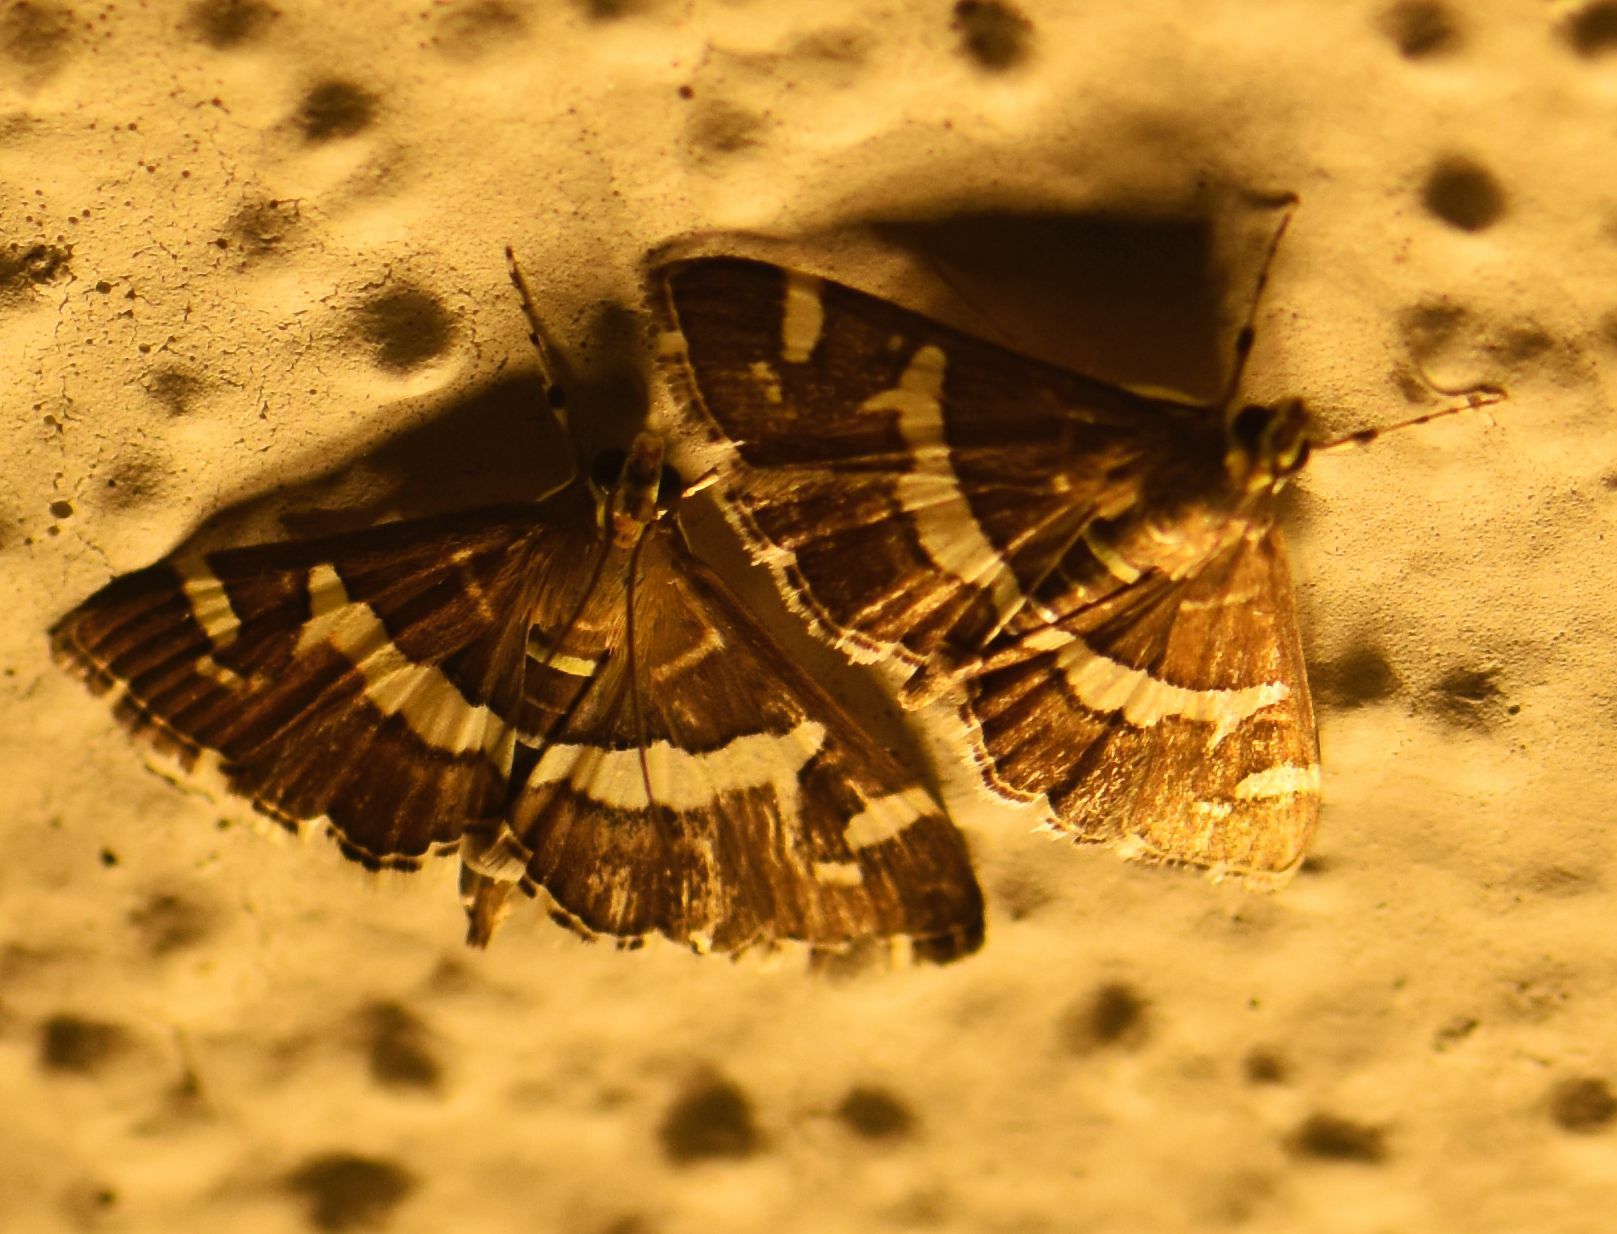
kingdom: Animalia
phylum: Arthropoda
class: Insecta
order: Lepidoptera
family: Crambidae
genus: Spoladea
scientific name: Spoladea recurvalis
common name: Beet webworm moth
